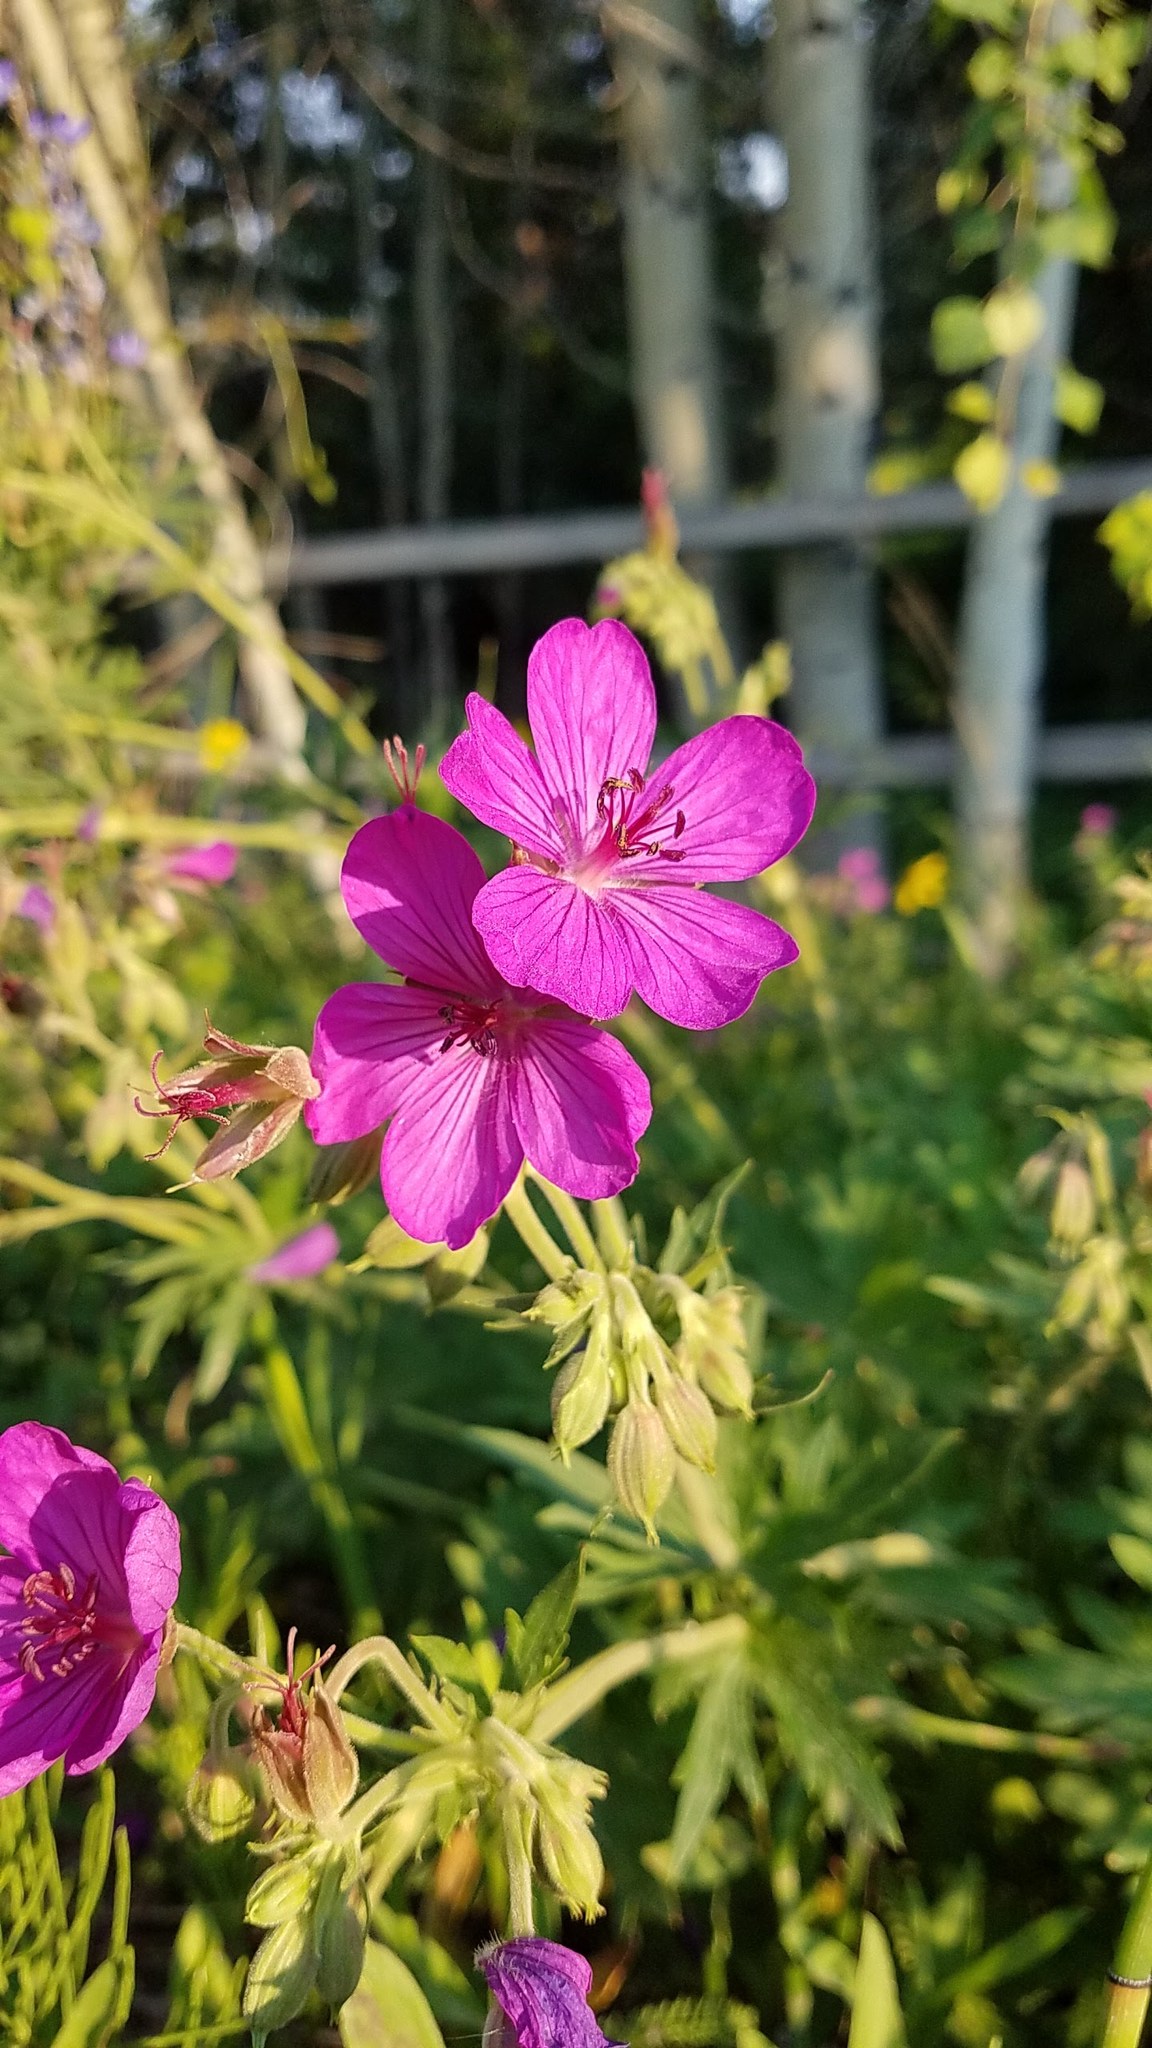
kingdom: Plantae
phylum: Tracheophyta
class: Magnoliopsida
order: Geraniales
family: Geraniaceae
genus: Geranium
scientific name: Geranium viscosissimum
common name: Purple geranium
